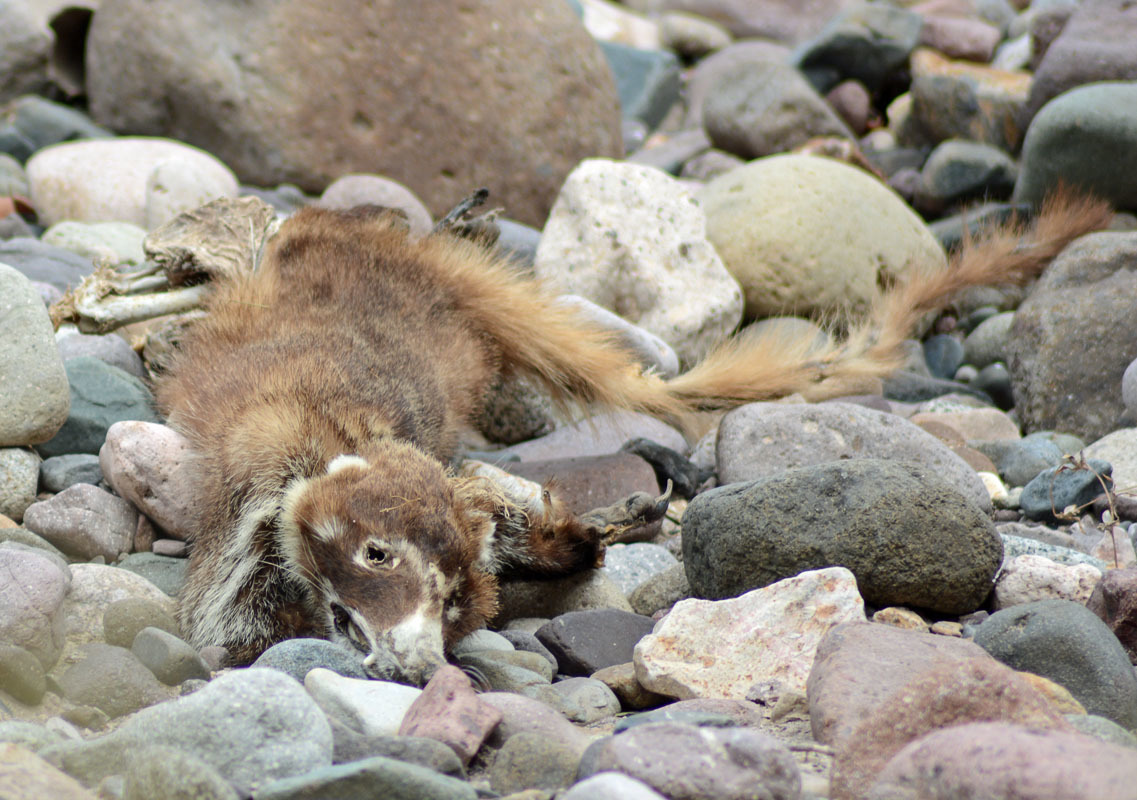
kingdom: Animalia
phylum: Chordata
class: Mammalia
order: Carnivora
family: Procyonidae
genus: Nasua
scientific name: Nasua narica
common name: White-nosed coati
